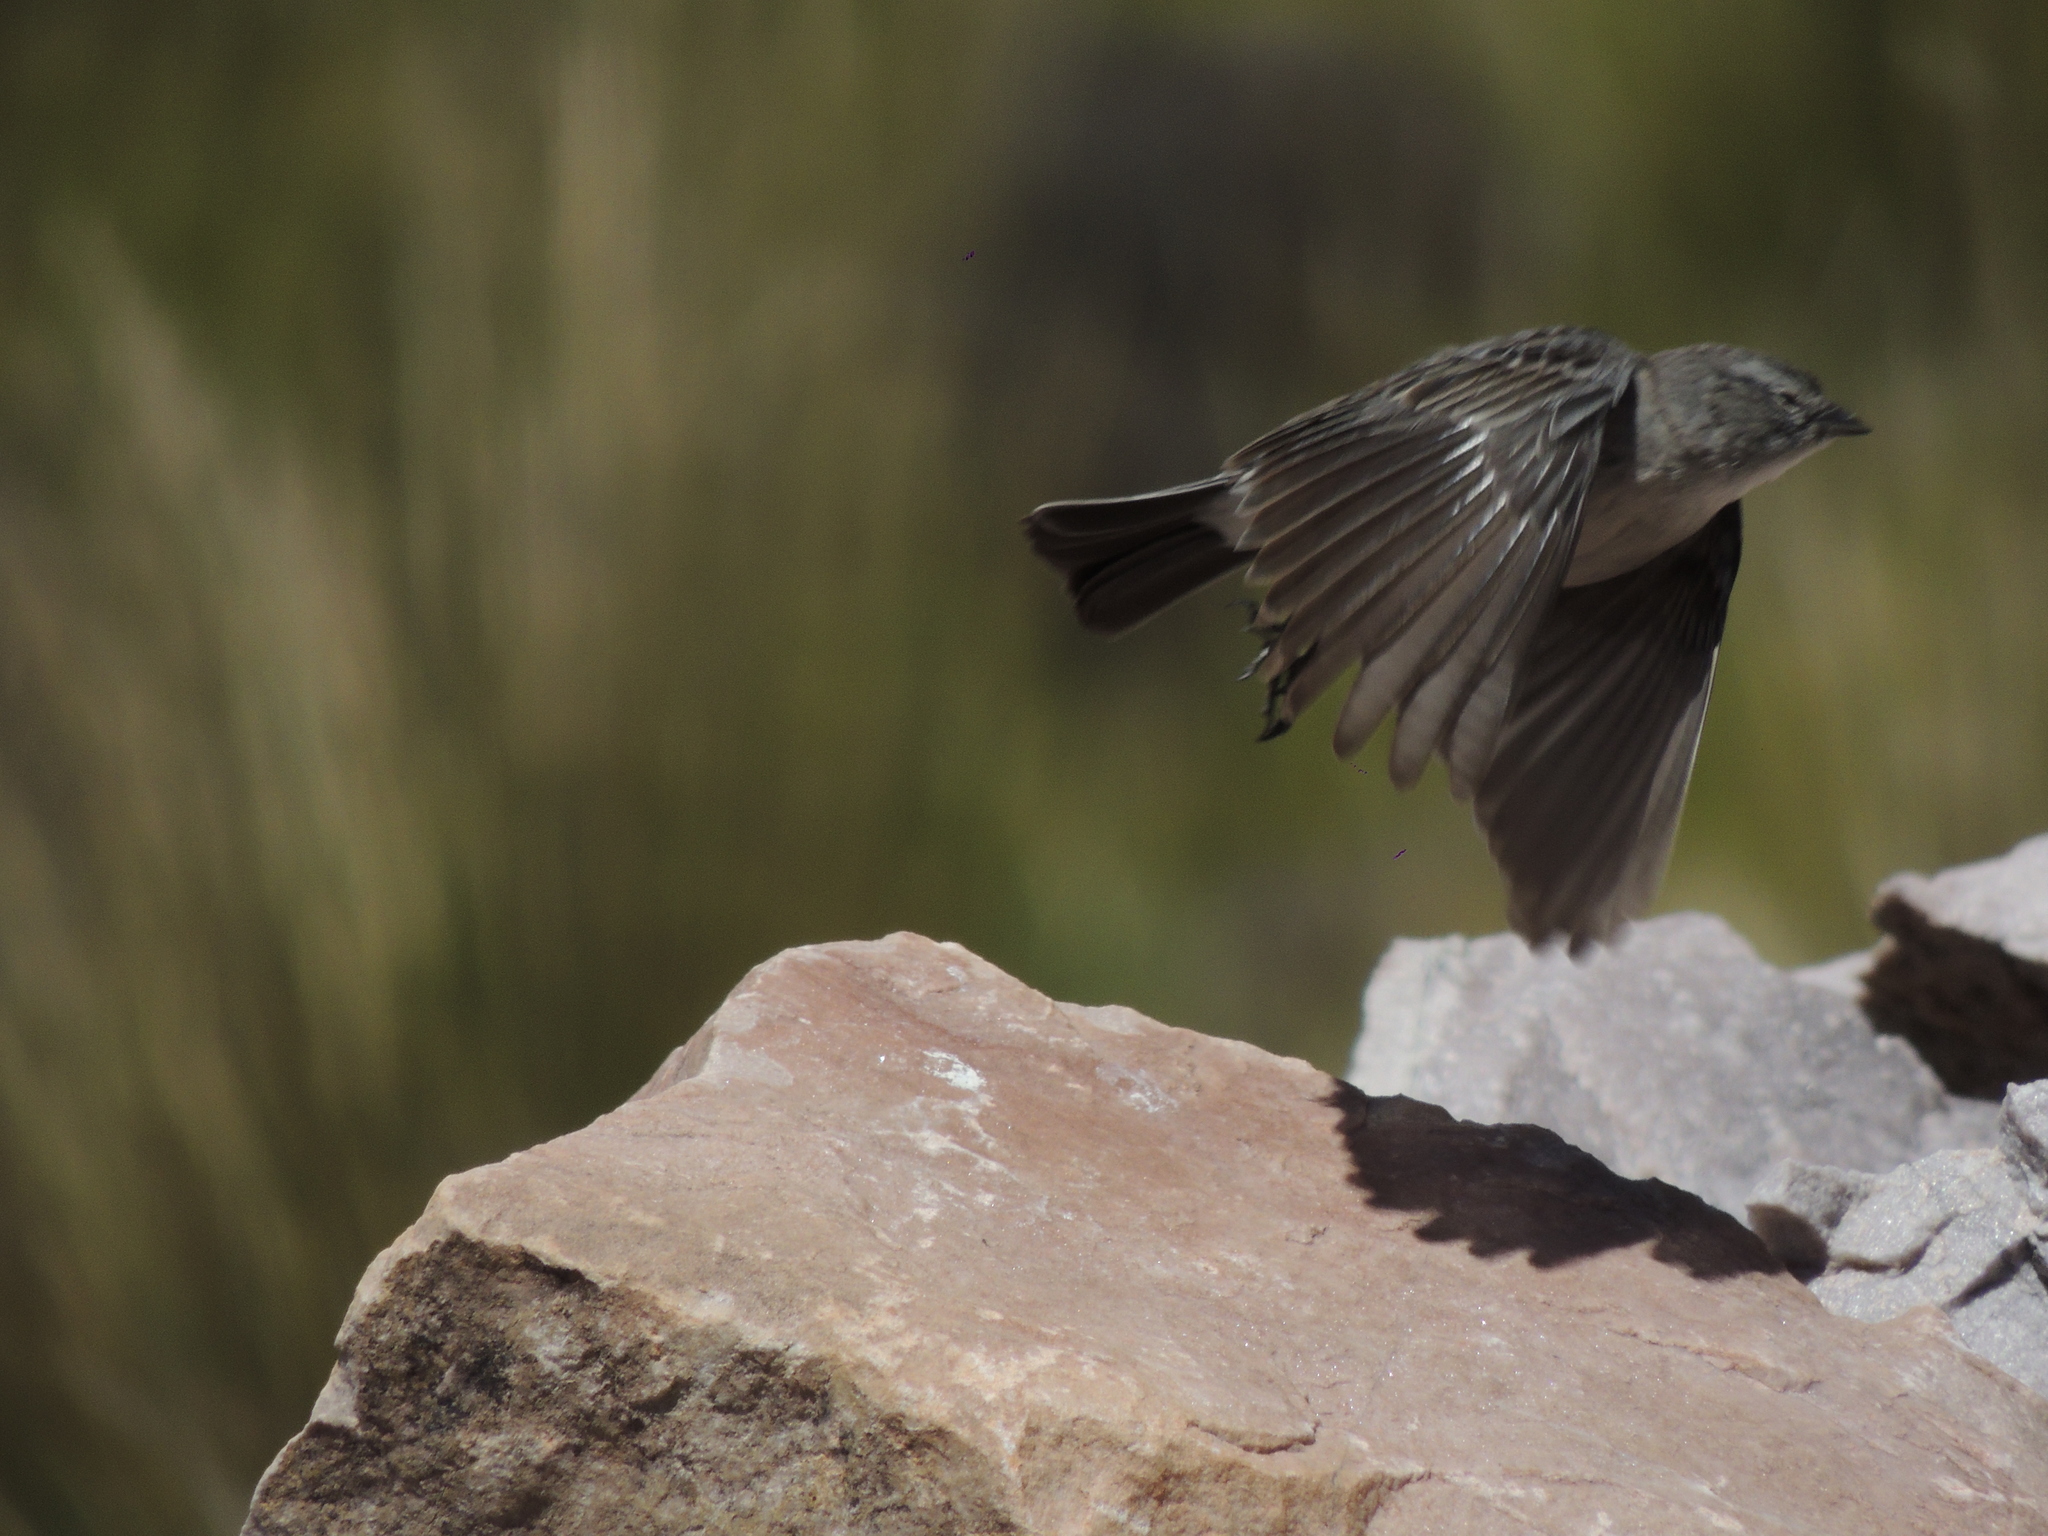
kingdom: Animalia
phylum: Chordata
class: Aves
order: Passeriformes
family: Thraupidae
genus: Geospizopsis
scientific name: Geospizopsis plebejus
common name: Ash-breasted sierra-finch
